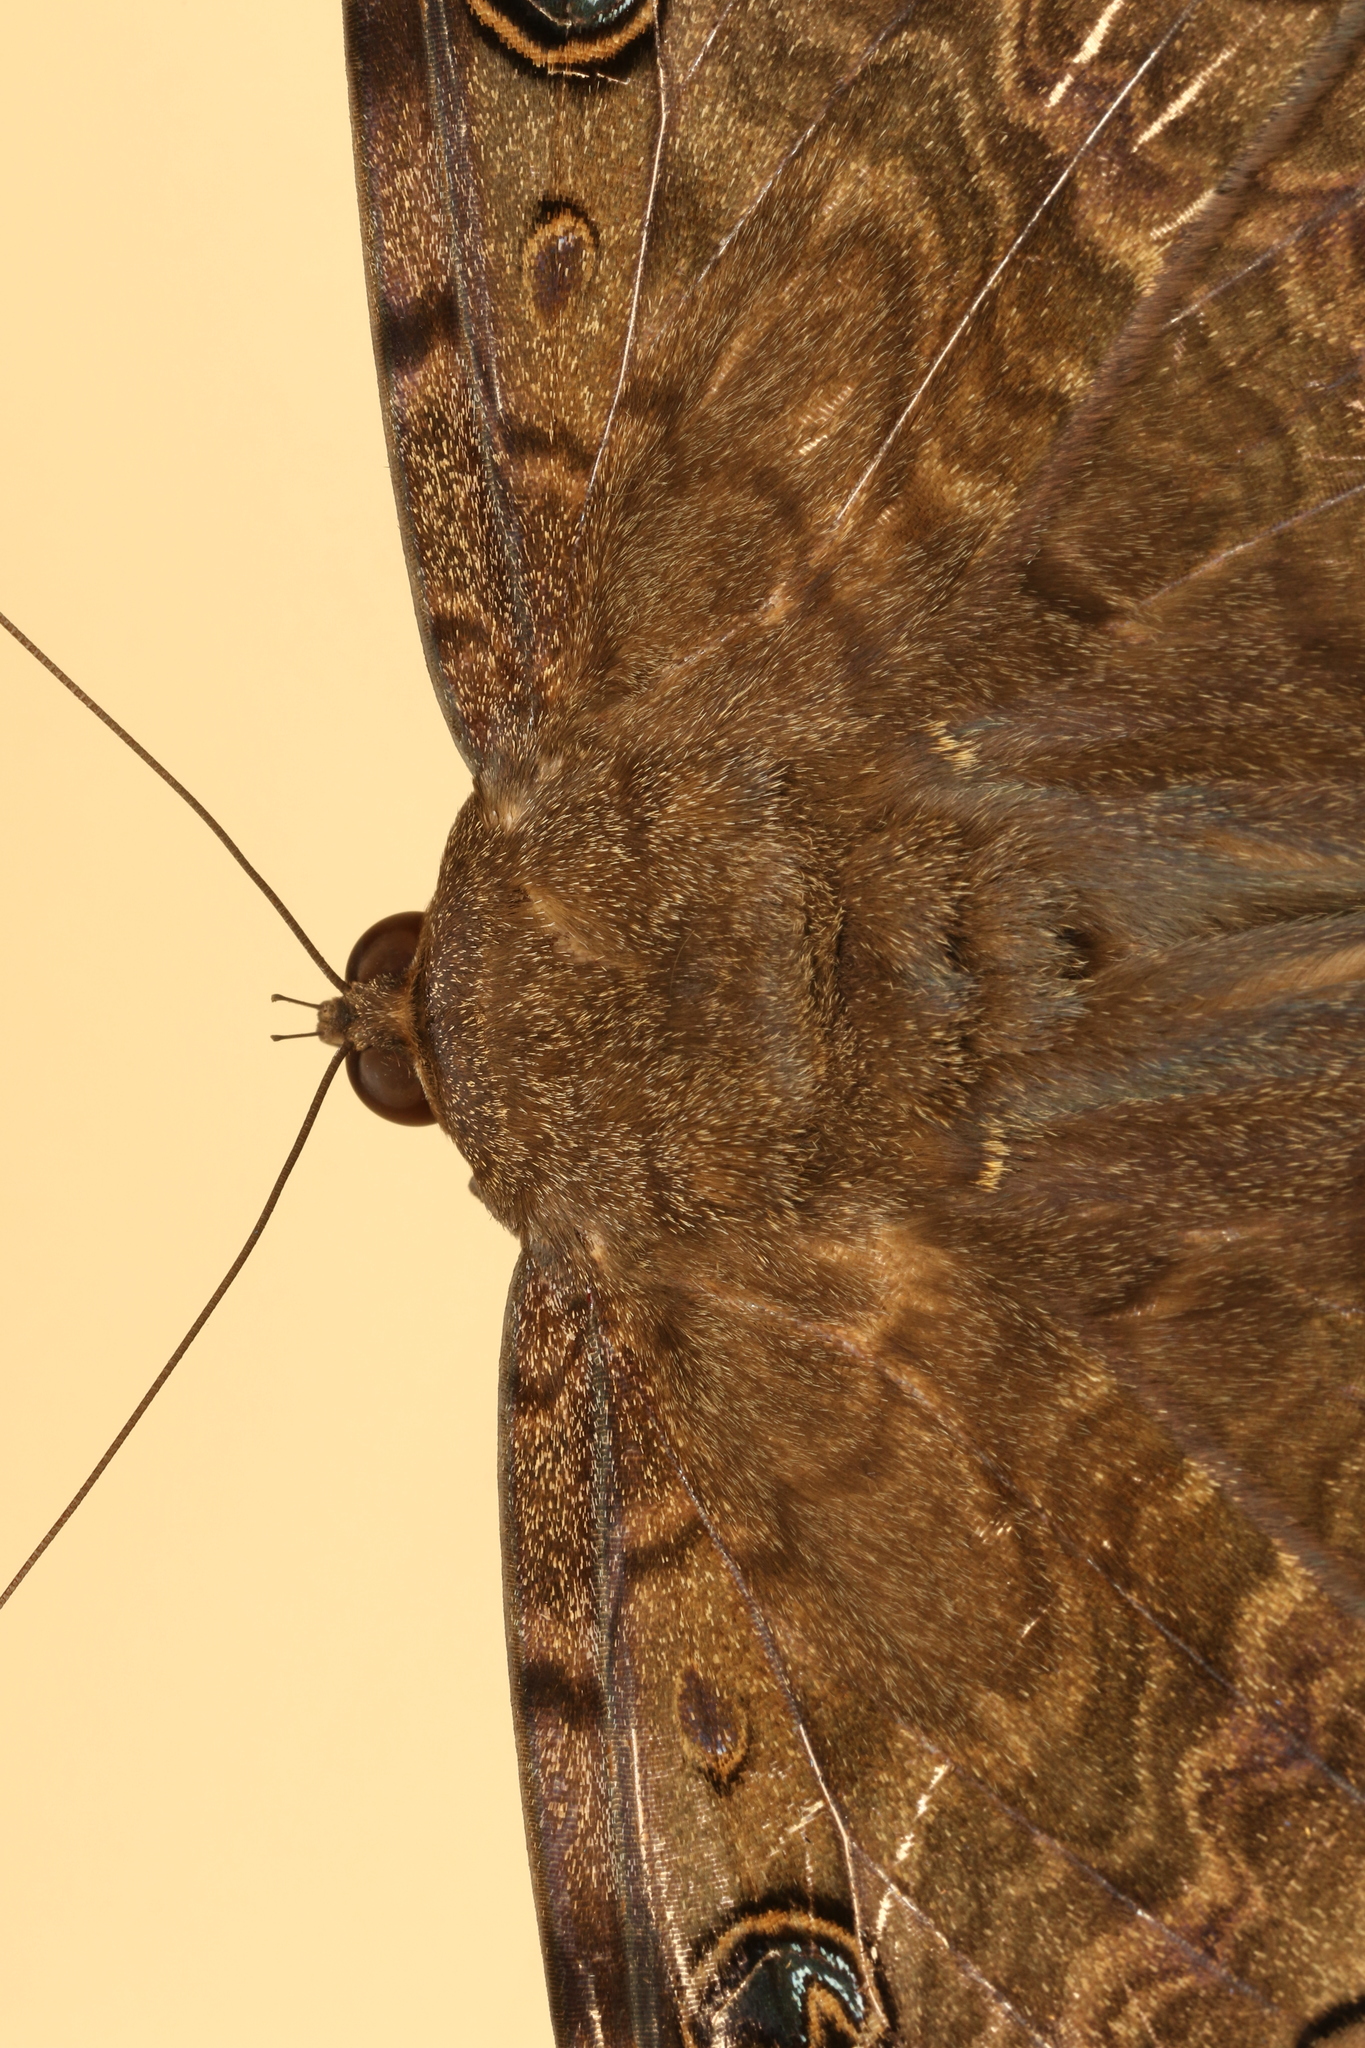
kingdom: Animalia
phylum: Arthropoda
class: Insecta
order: Lepidoptera
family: Erebidae
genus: Ascalapha
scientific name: Ascalapha odorata
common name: Black witch
